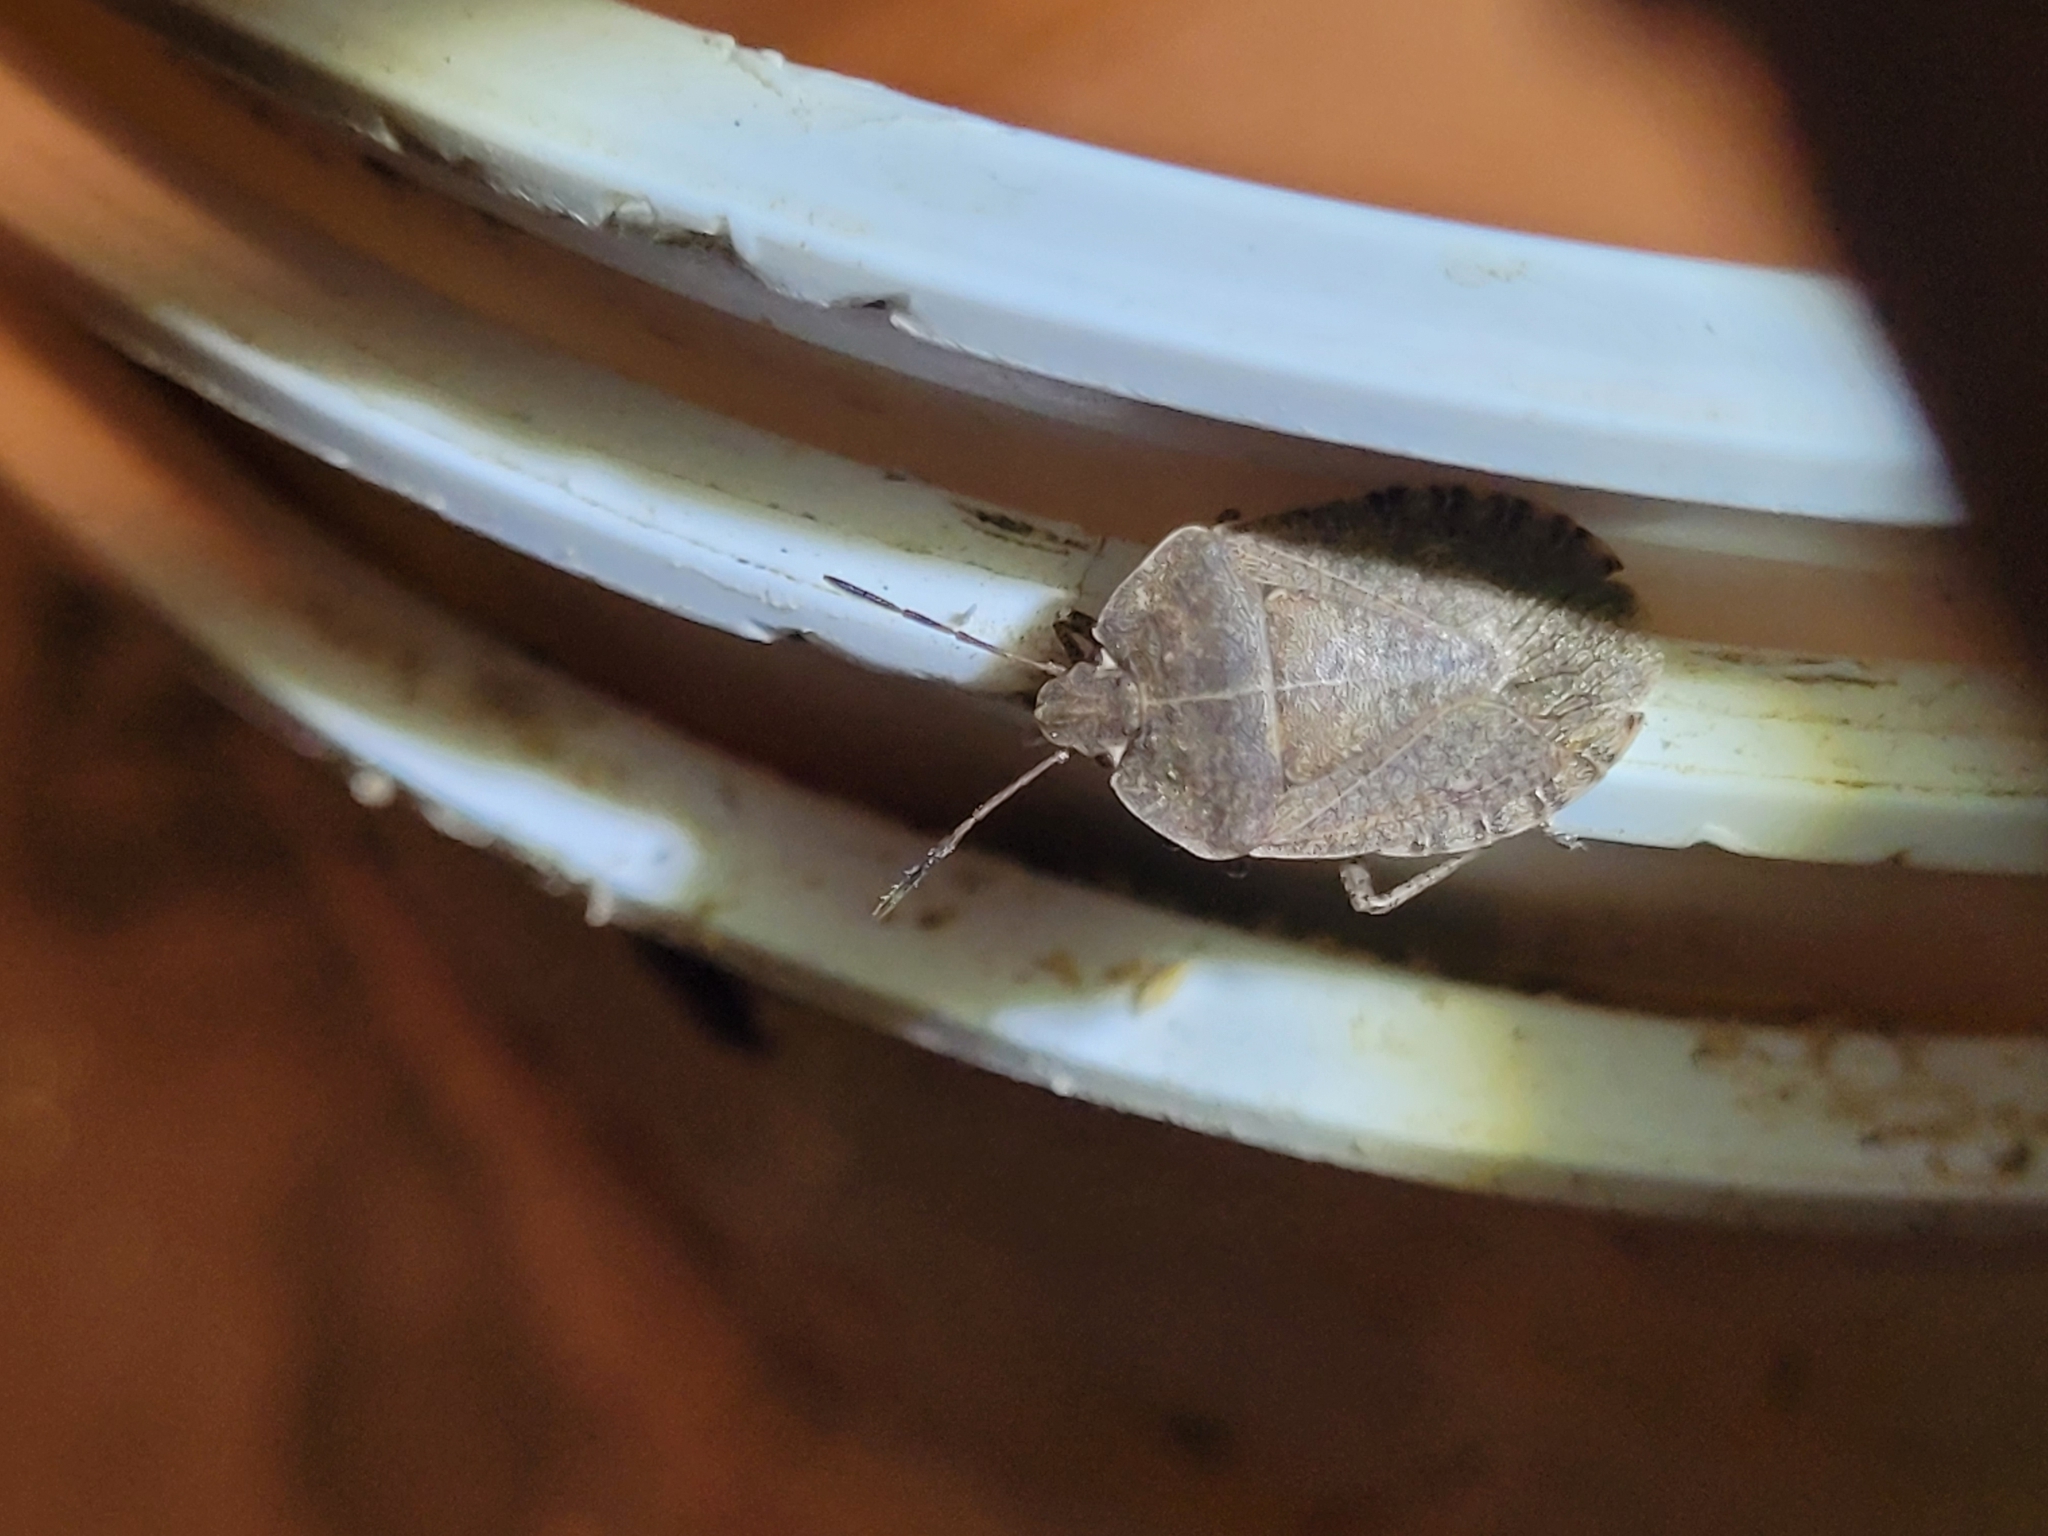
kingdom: Animalia
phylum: Arthropoda
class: Insecta
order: Hemiptera
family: Pentatomidae
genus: Menecles
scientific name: Menecles insertus
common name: Elf shoe stink bug
